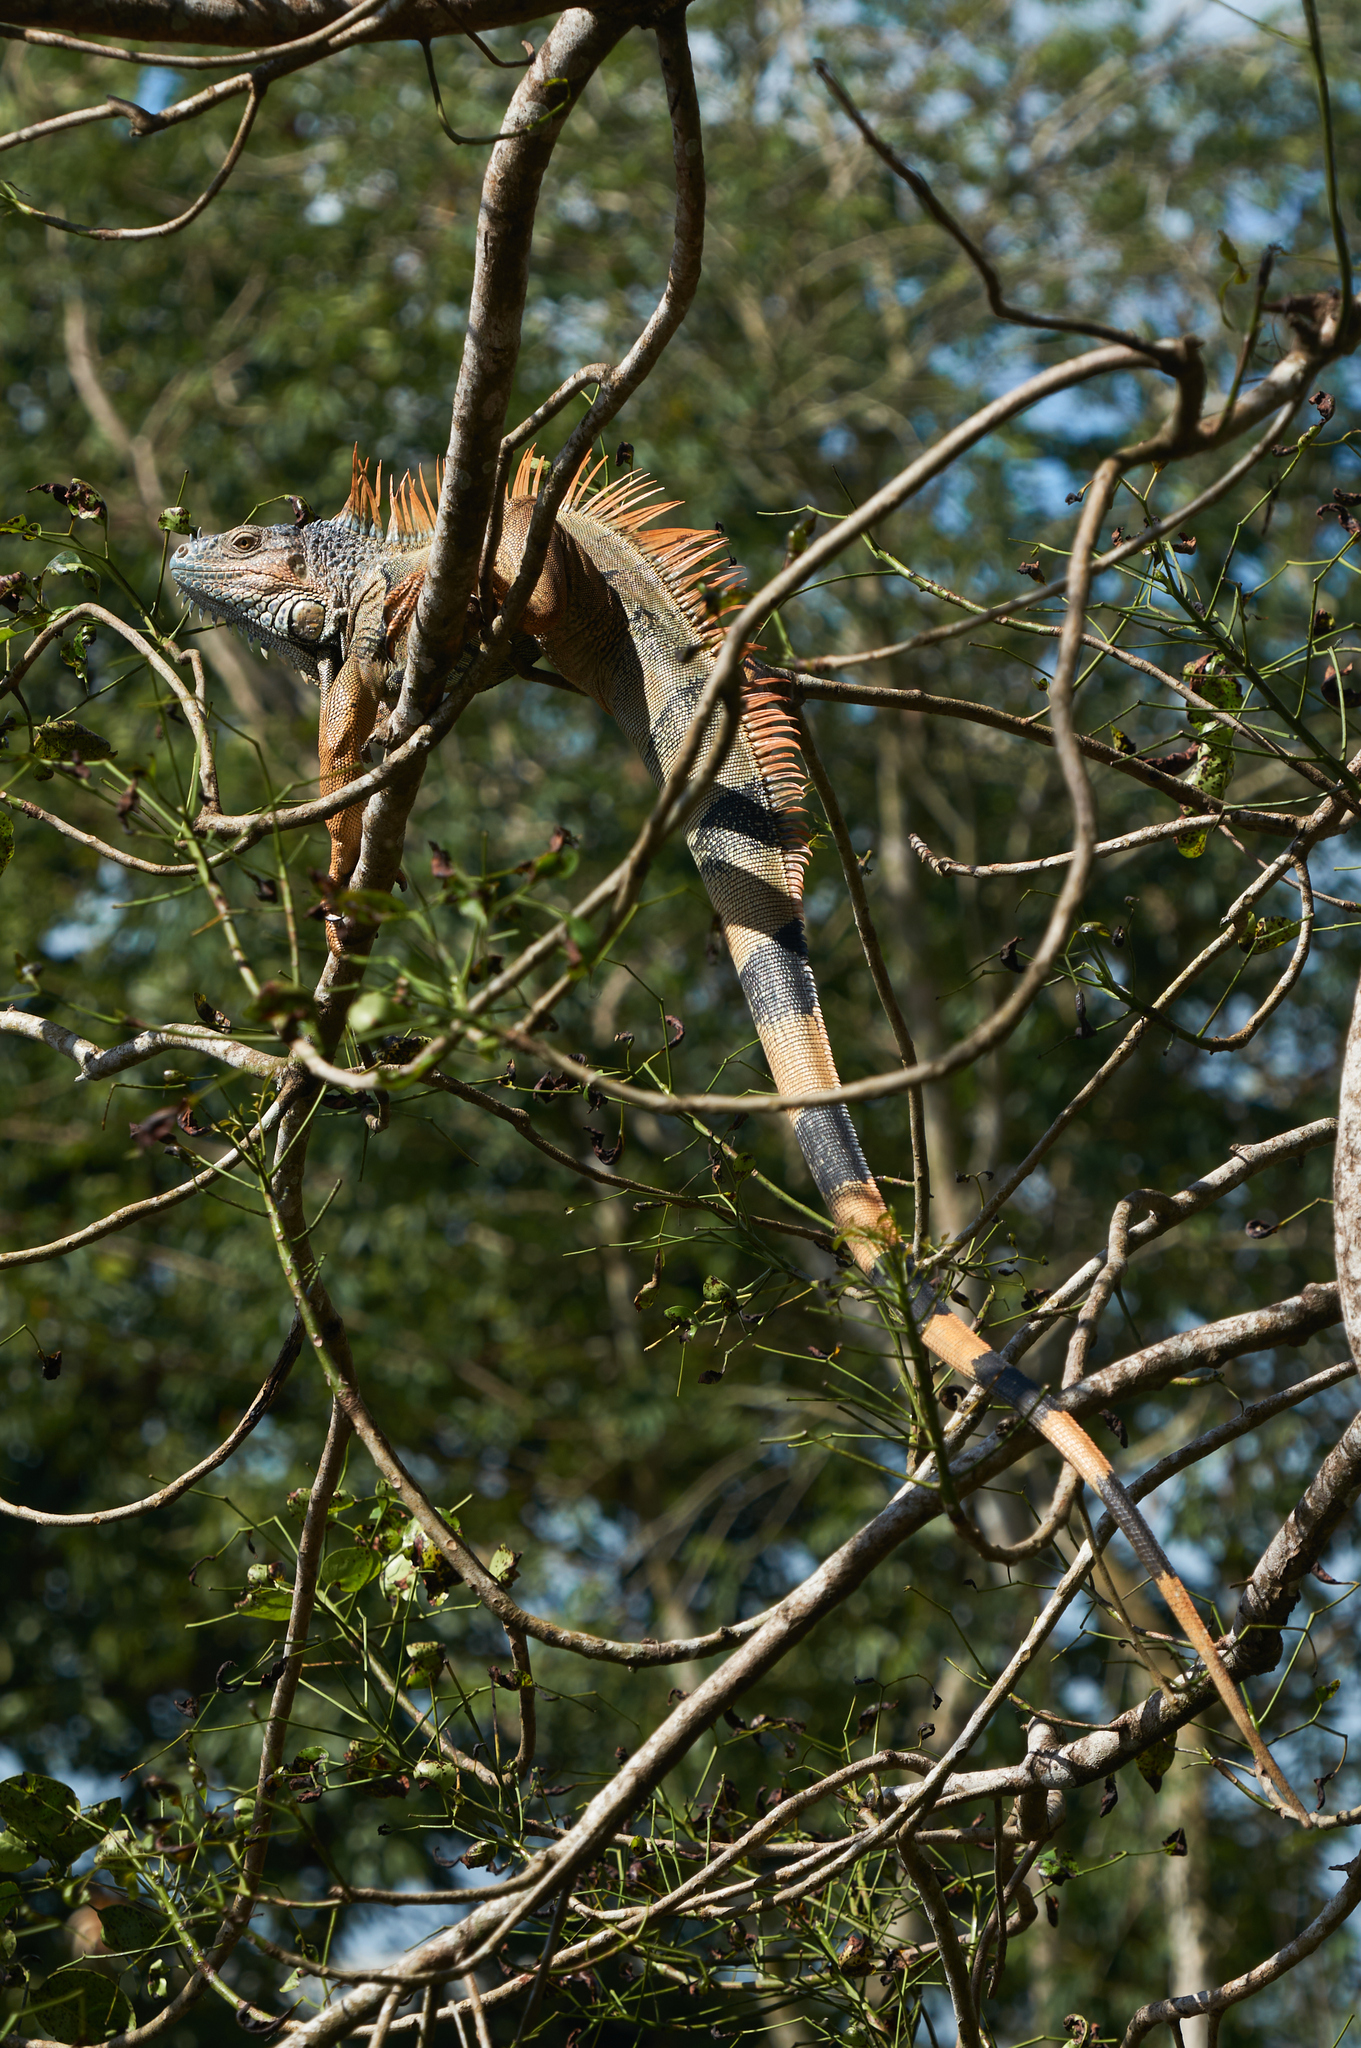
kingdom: Animalia
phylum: Chordata
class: Squamata
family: Iguanidae
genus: Iguana
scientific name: Iguana iguana
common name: Green iguana
